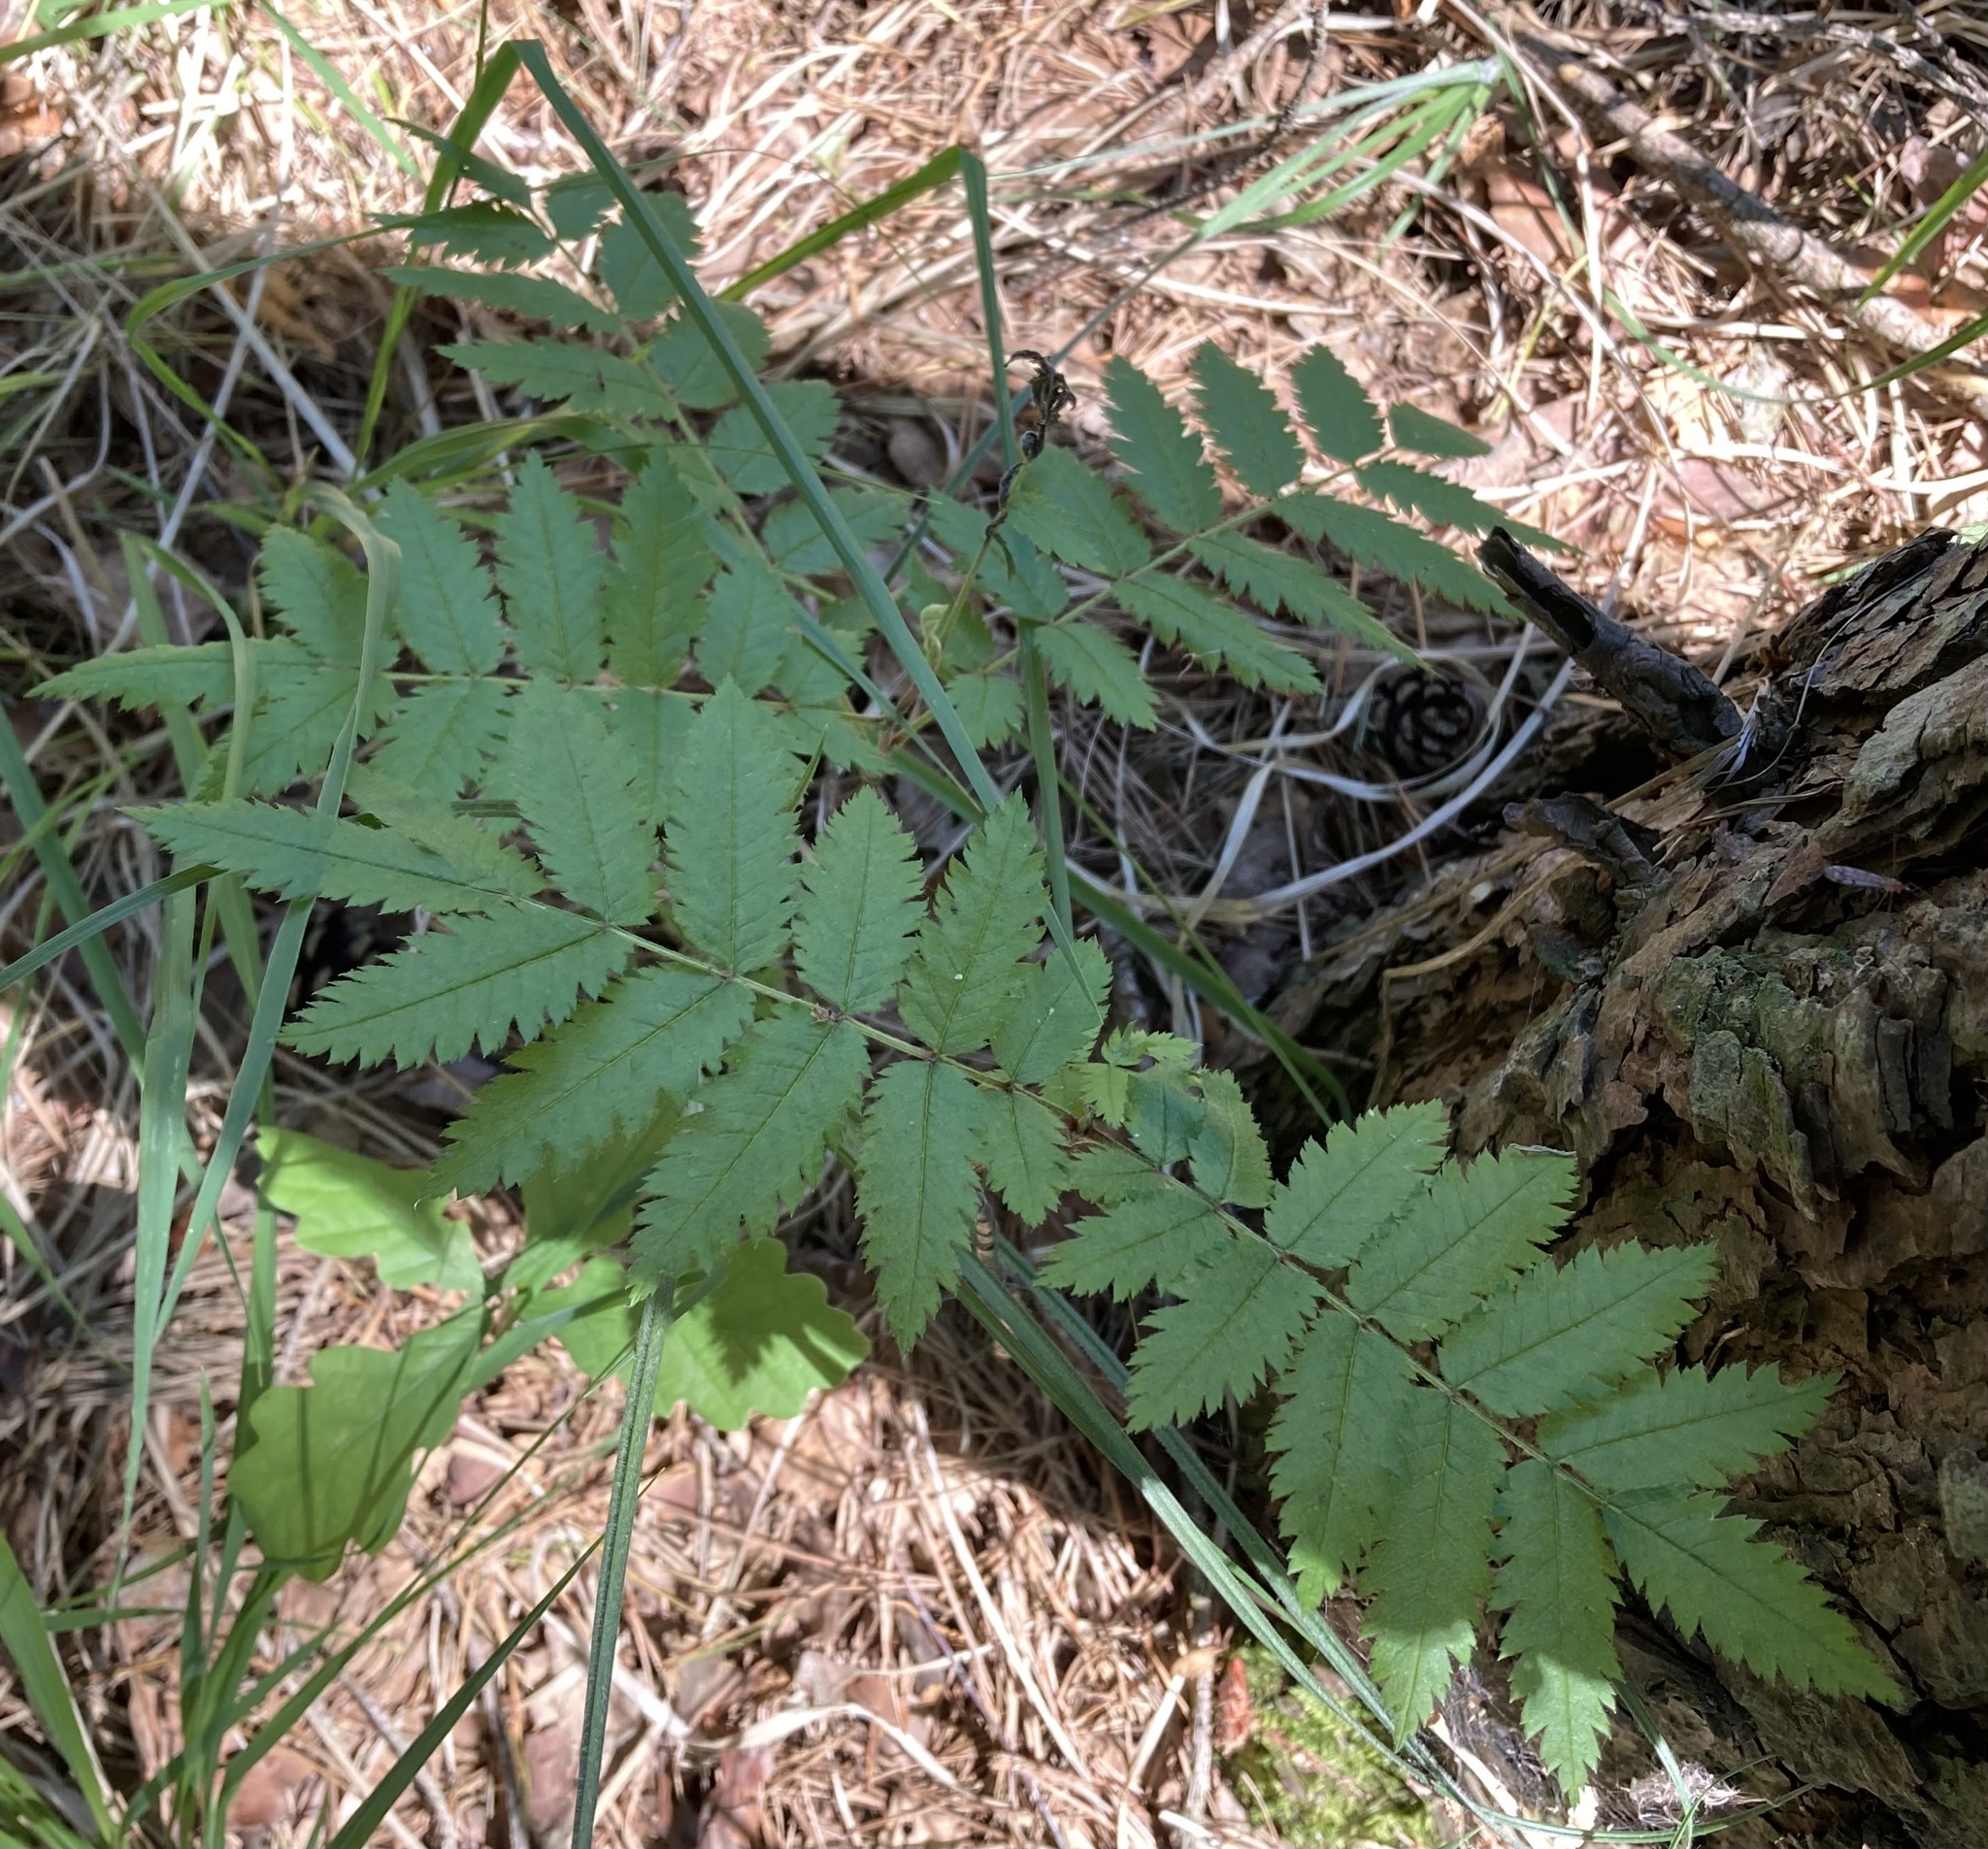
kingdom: Plantae
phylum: Tracheophyta
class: Magnoliopsida
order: Rosales
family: Rosaceae
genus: Sorbus
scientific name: Sorbus aucuparia
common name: Rowan
